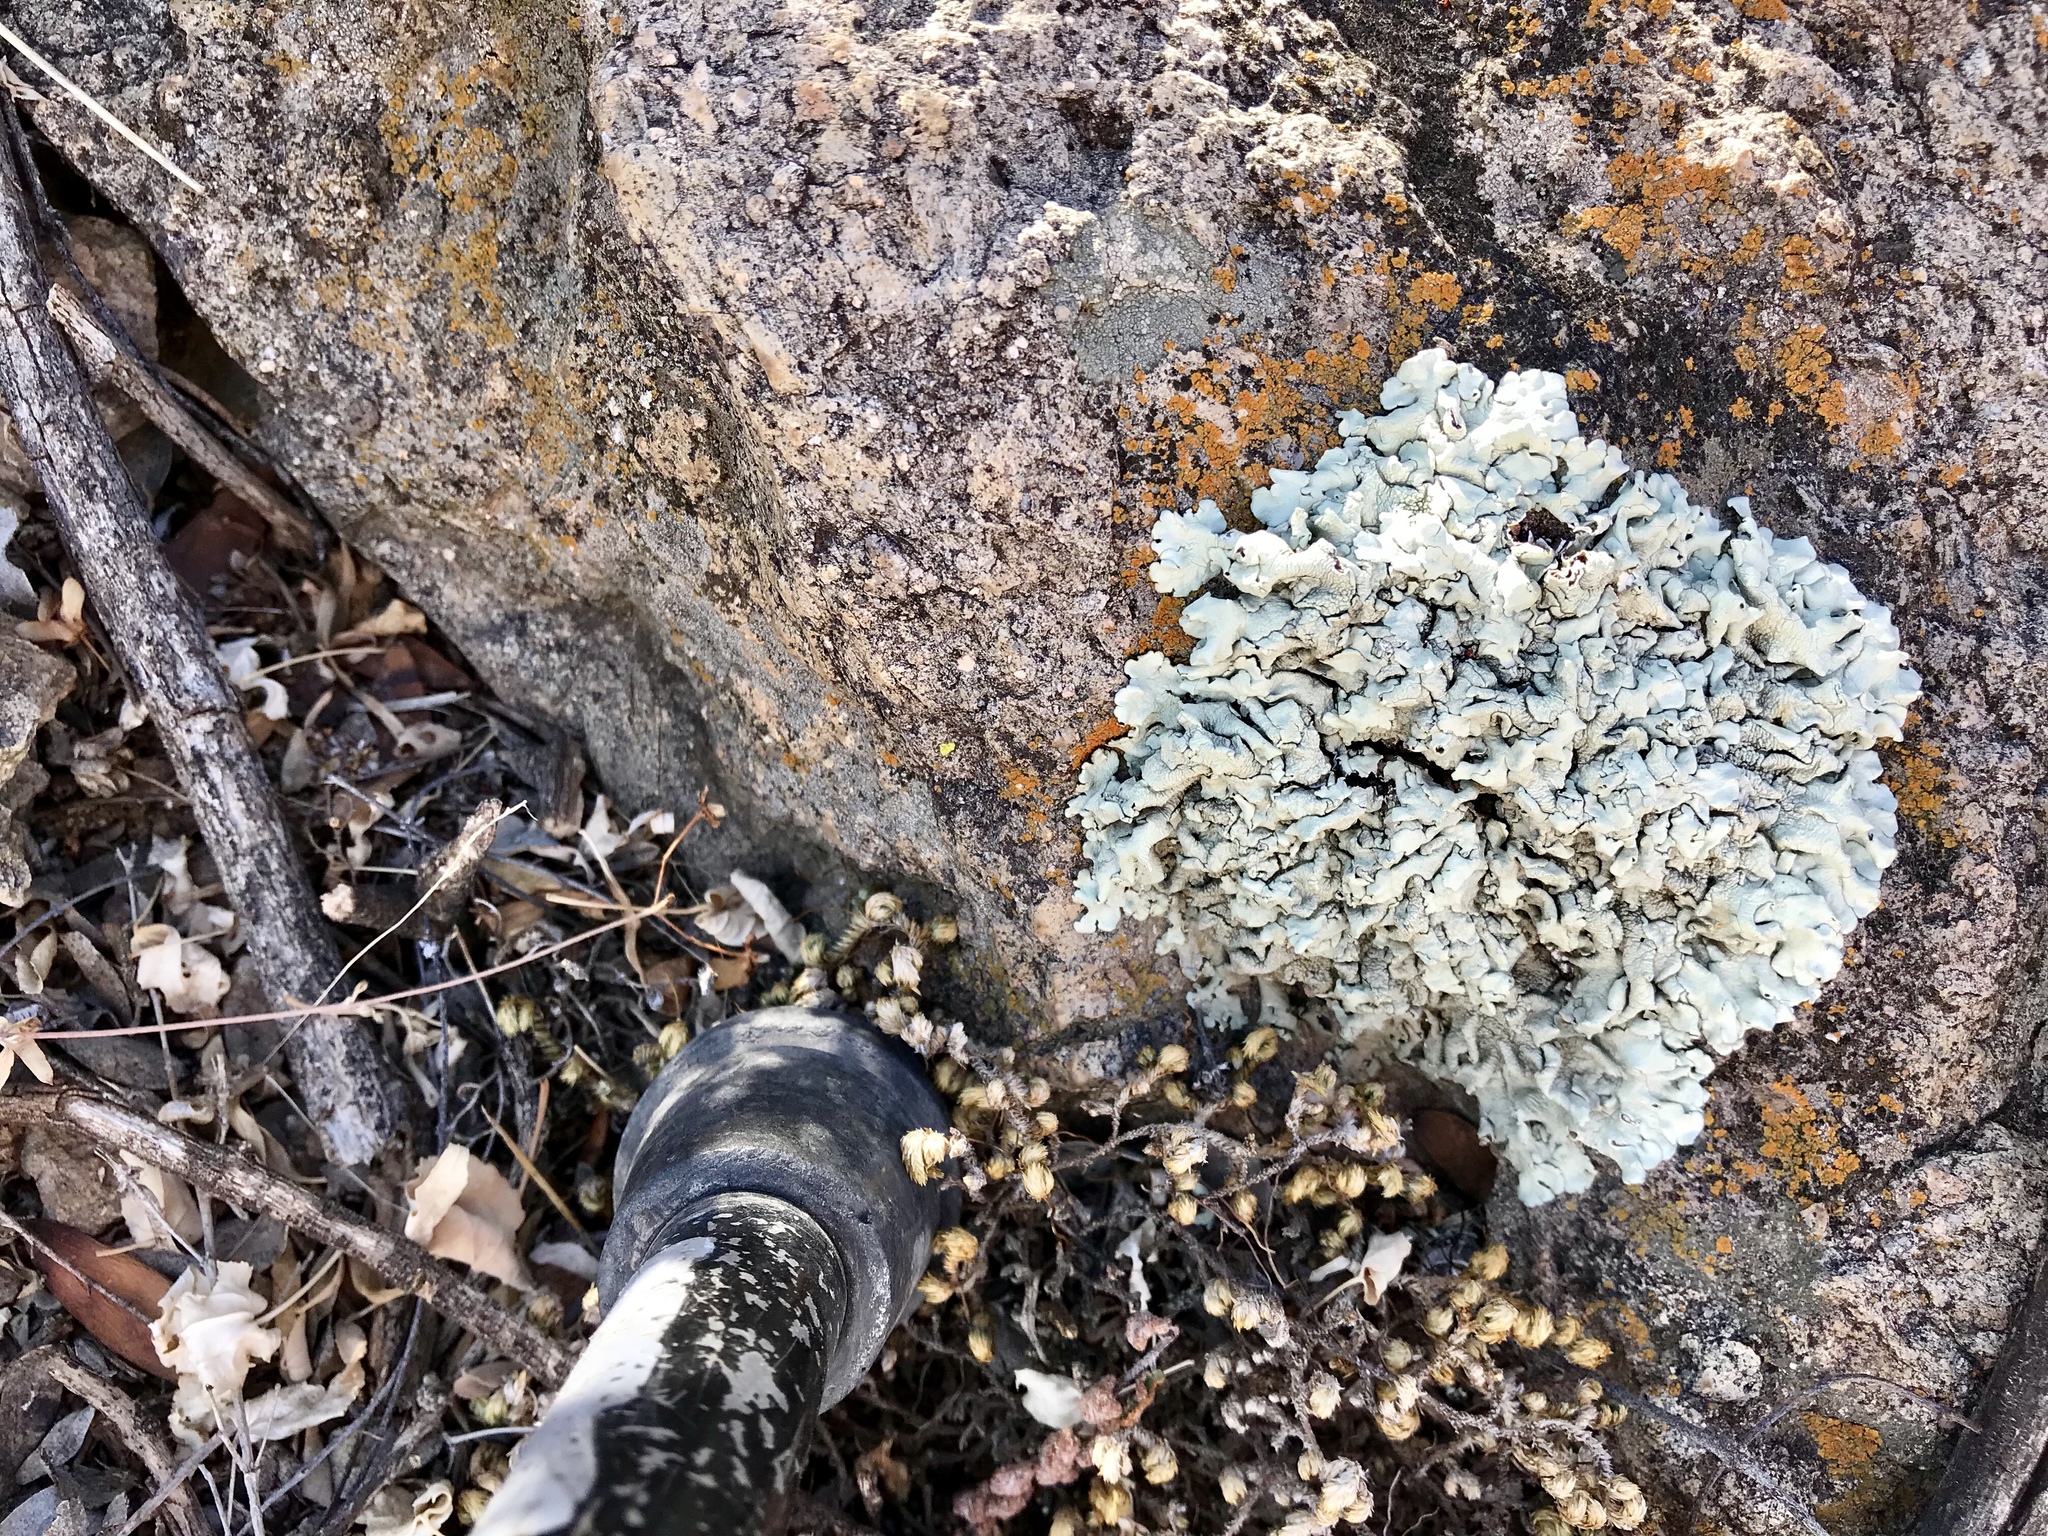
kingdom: Fungi
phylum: Ascomycota
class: Lecanoromycetes
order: Lecanorales
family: Parmeliaceae
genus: Flavoparmelia
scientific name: Flavoparmelia caperata
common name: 40-mile per hour lichen
